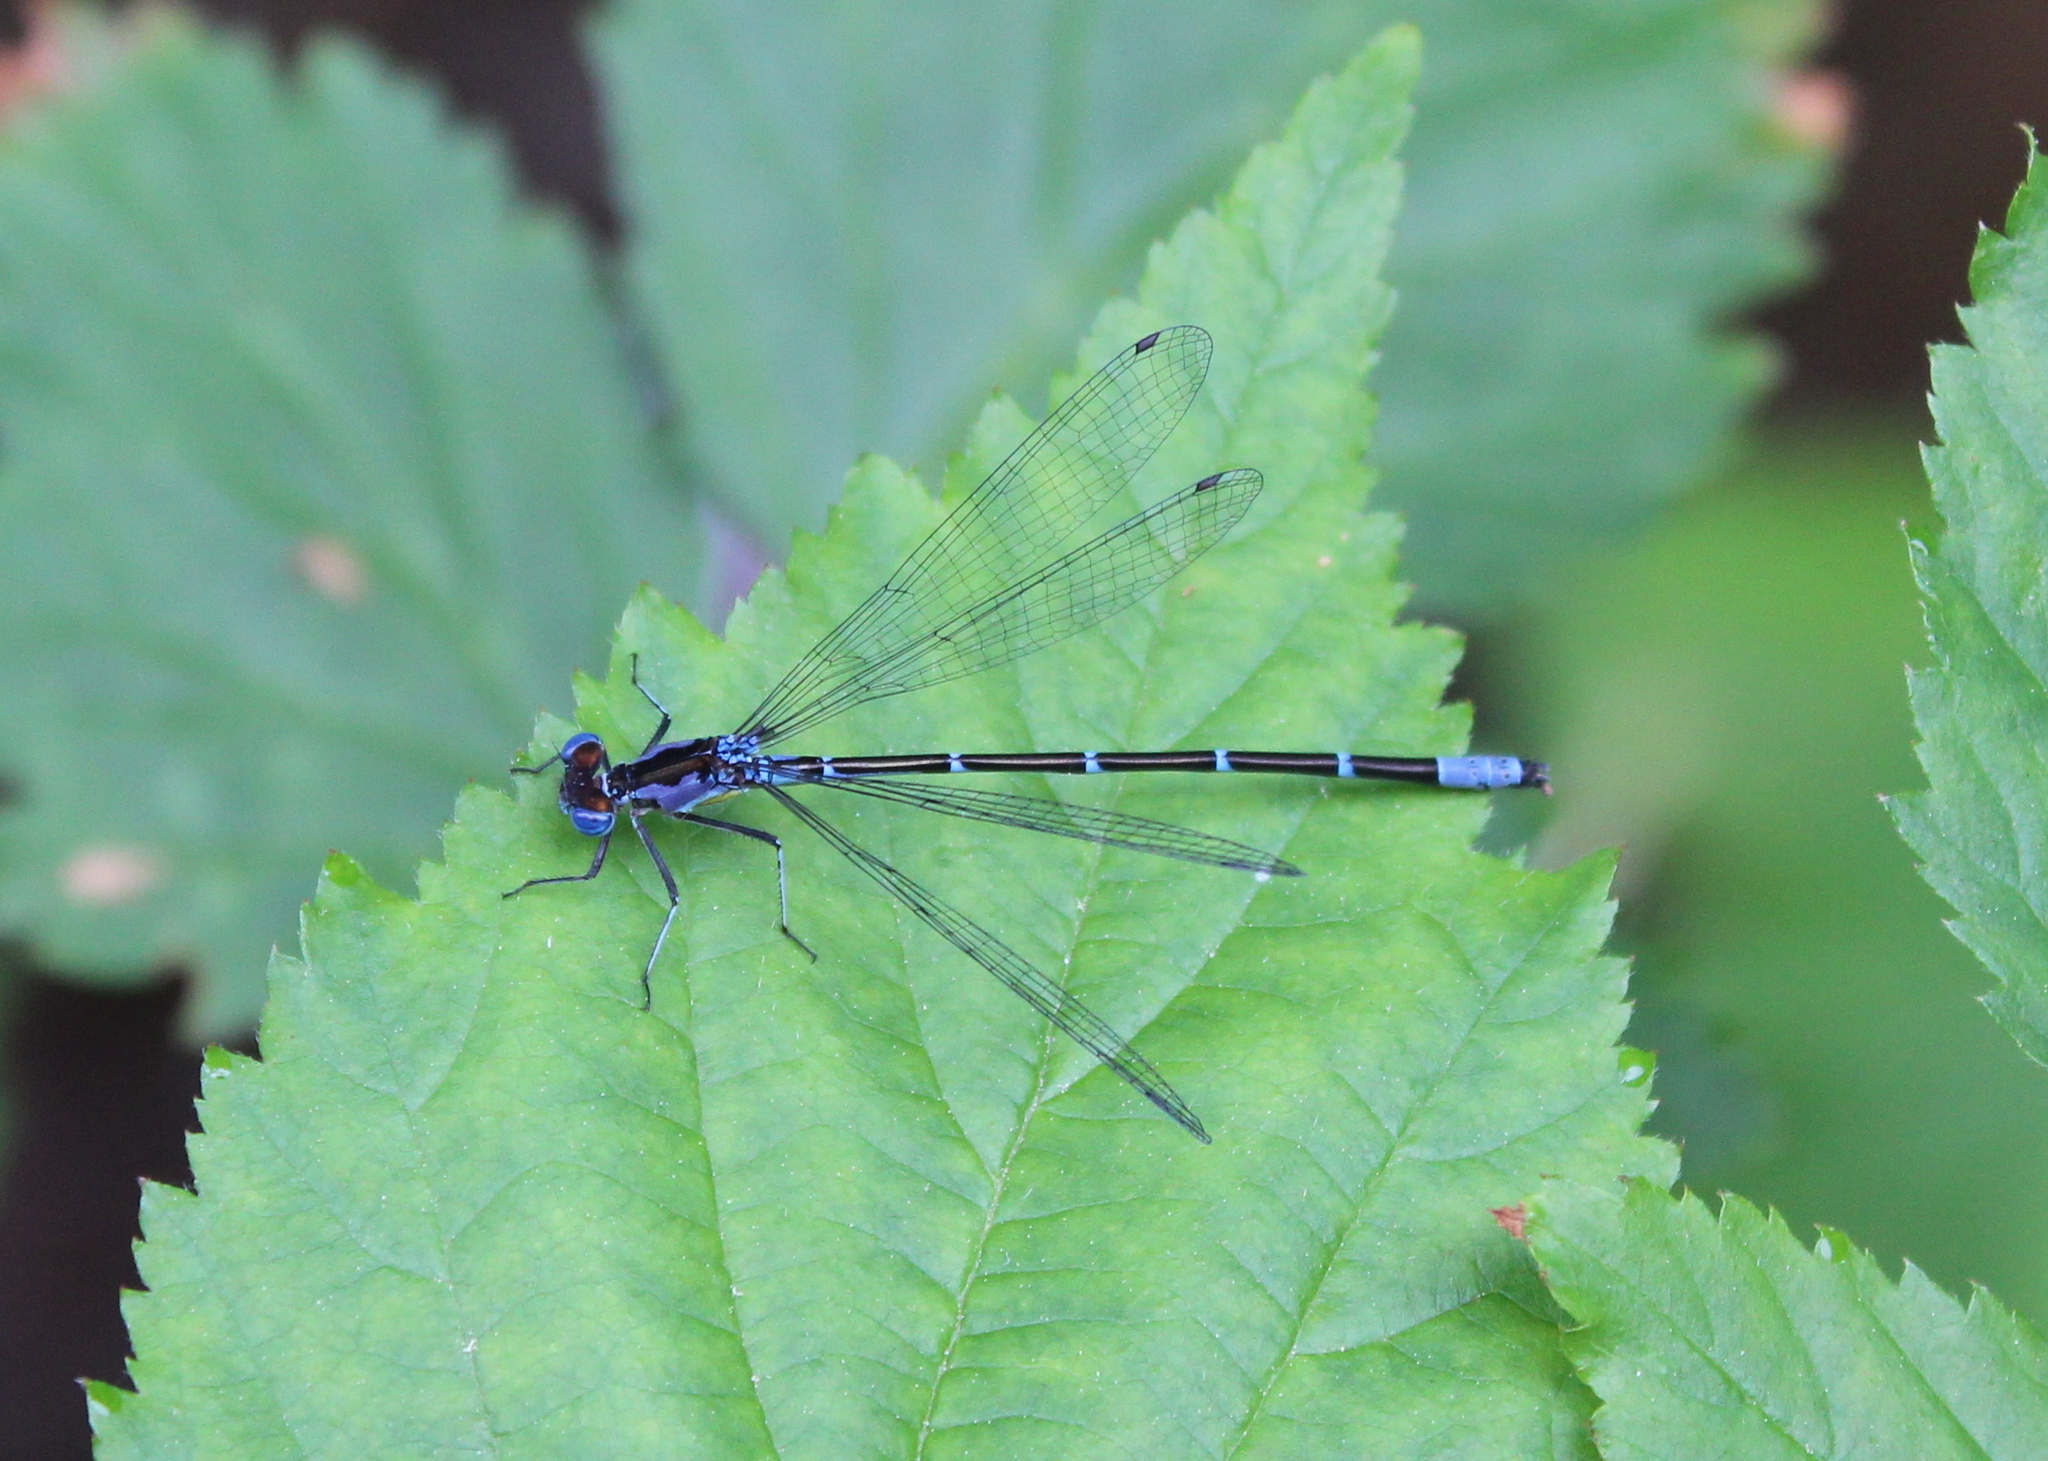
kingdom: Animalia
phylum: Arthropoda
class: Insecta
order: Odonata
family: Coenagrionidae
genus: Chromagrion
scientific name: Chromagrion conditum
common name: Aurora damsel
